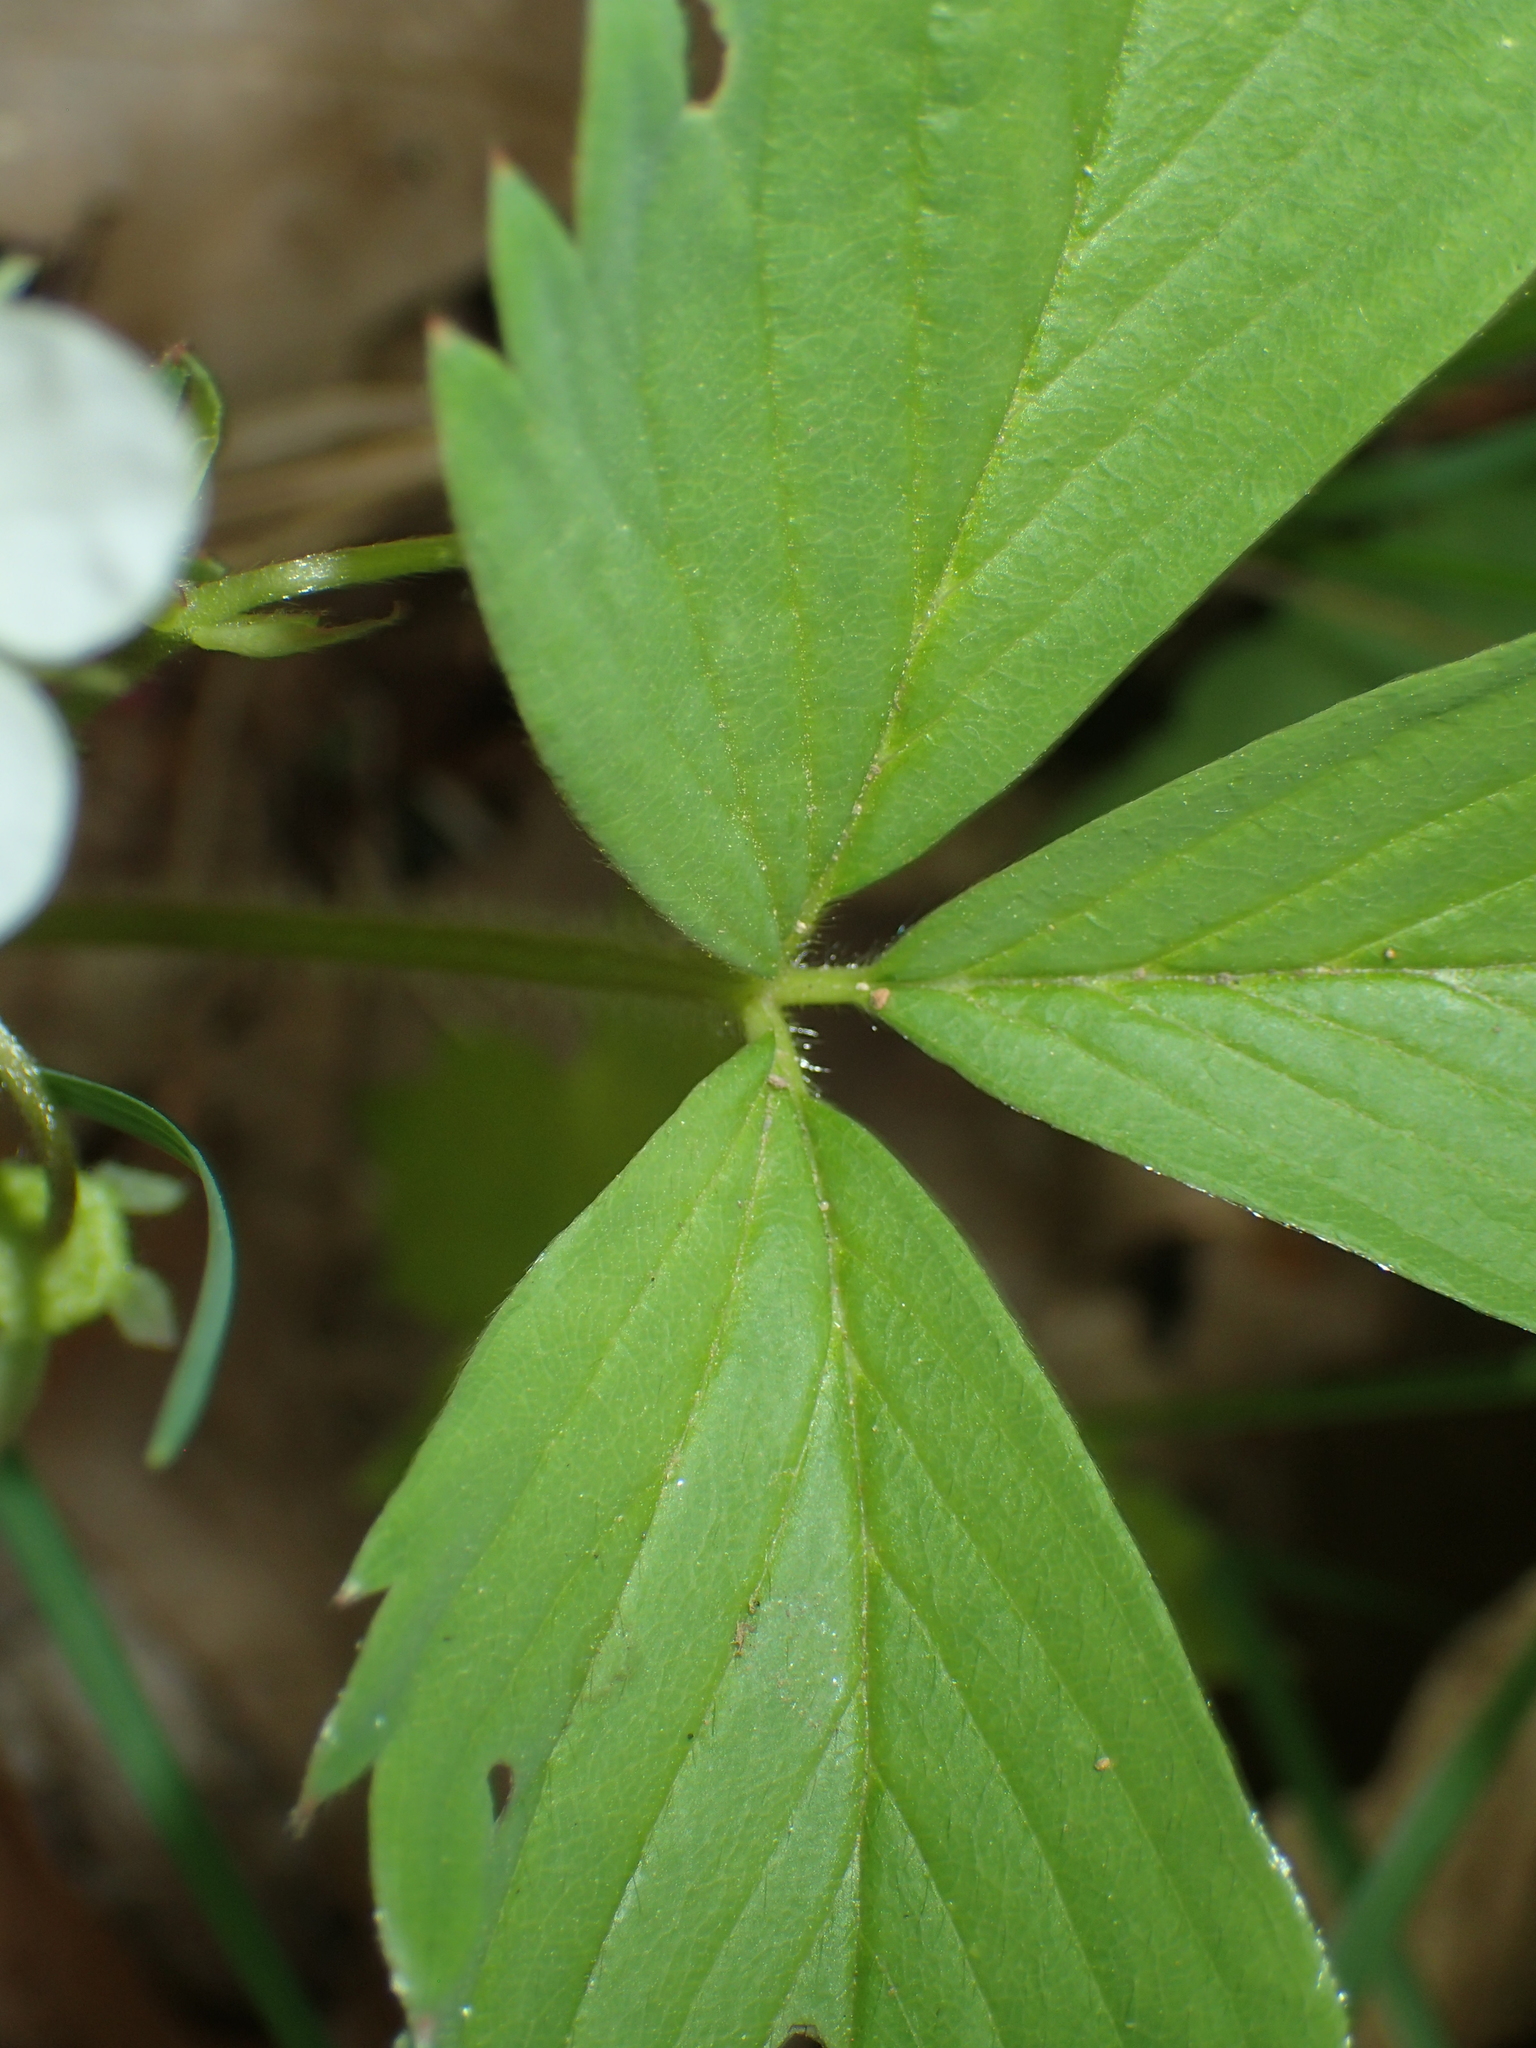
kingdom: Plantae
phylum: Tracheophyta
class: Magnoliopsida
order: Rosales
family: Rosaceae
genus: Fragaria
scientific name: Fragaria virginiana
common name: Thickleaved wild strawberry
